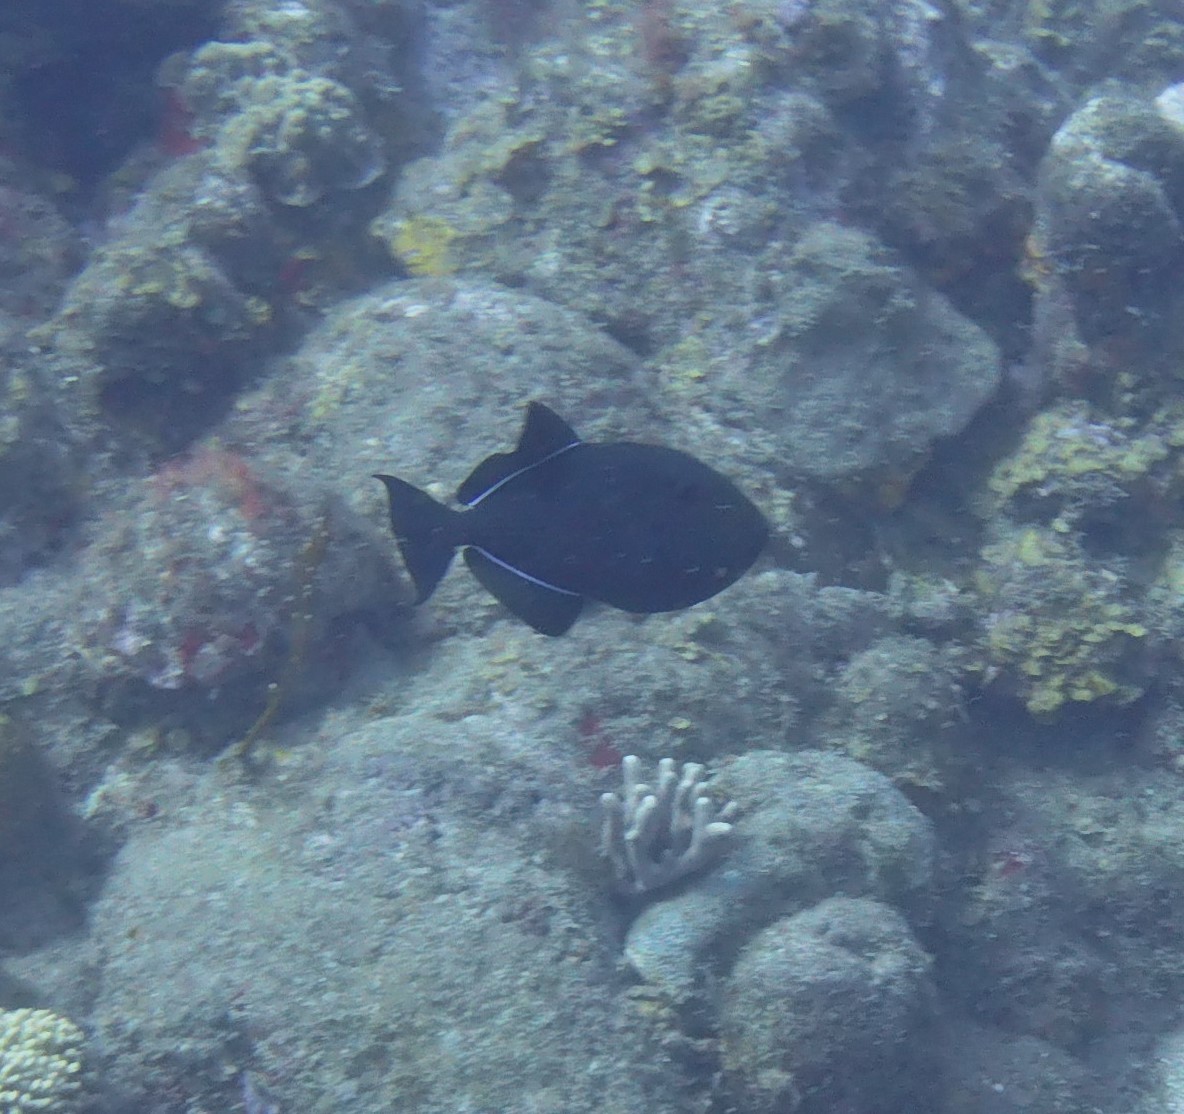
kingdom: Animalia
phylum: Chordata
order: Tetraodontiformes
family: Balistidae
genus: Melichthys
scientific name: Melichthys niger
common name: Black durgon
